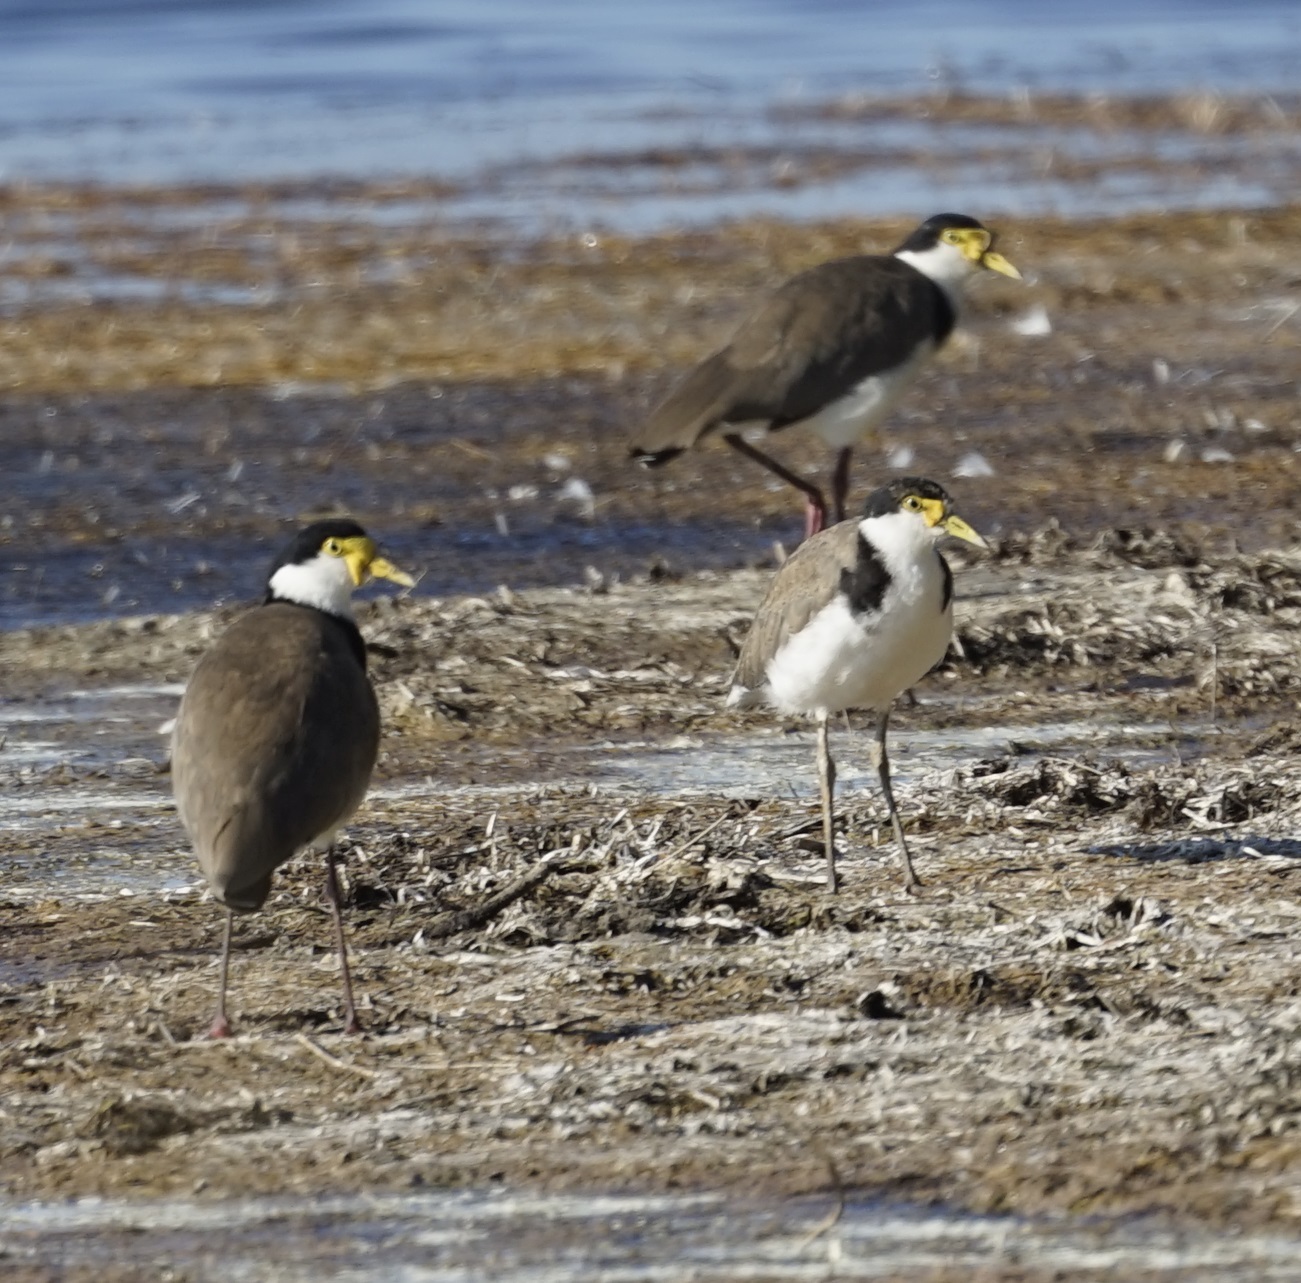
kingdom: Animalia
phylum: Chordata
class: Aves
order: Charadriiformes
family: Charadriidae
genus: Vanellus
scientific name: Vanellus miles
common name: Masked lapwing
